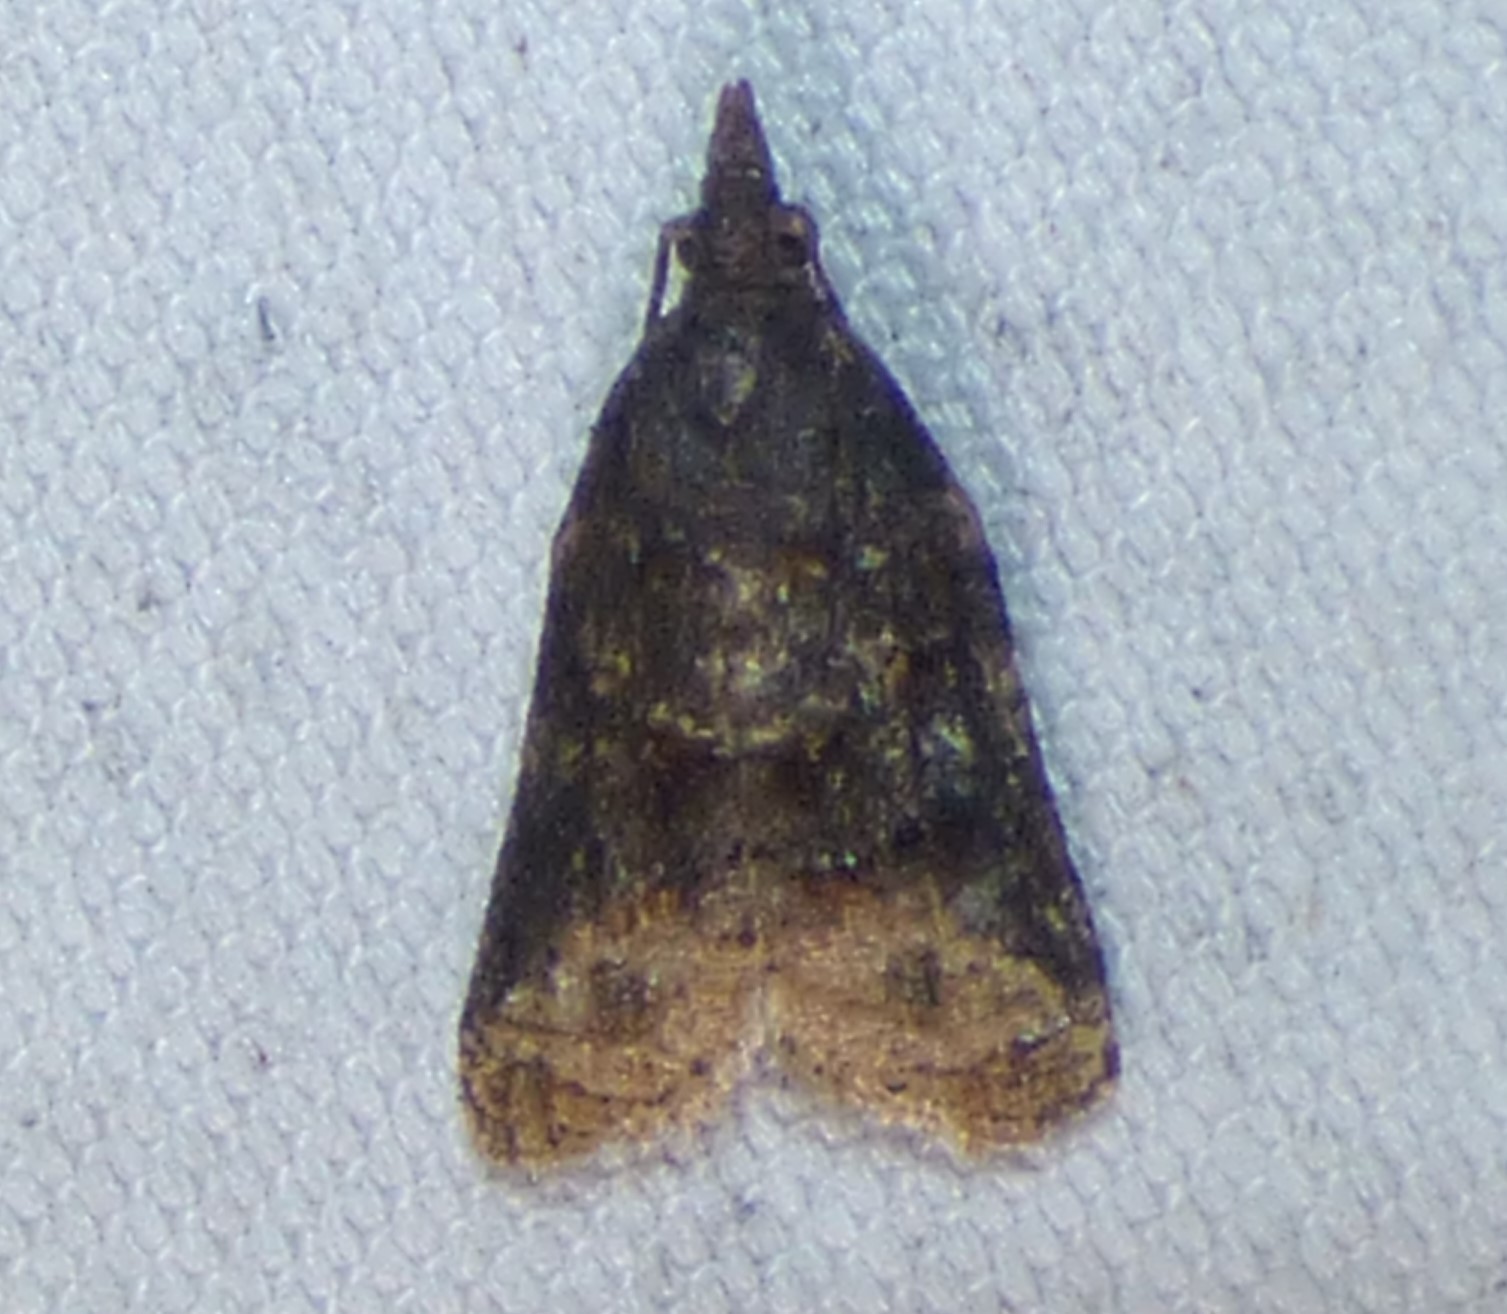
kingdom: Animalia
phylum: Arthropoda
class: Insecta
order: Lepidoptera
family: Tortricidae
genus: Platynota
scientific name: Platynota flavedana
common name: Black-shaded platynota moth
